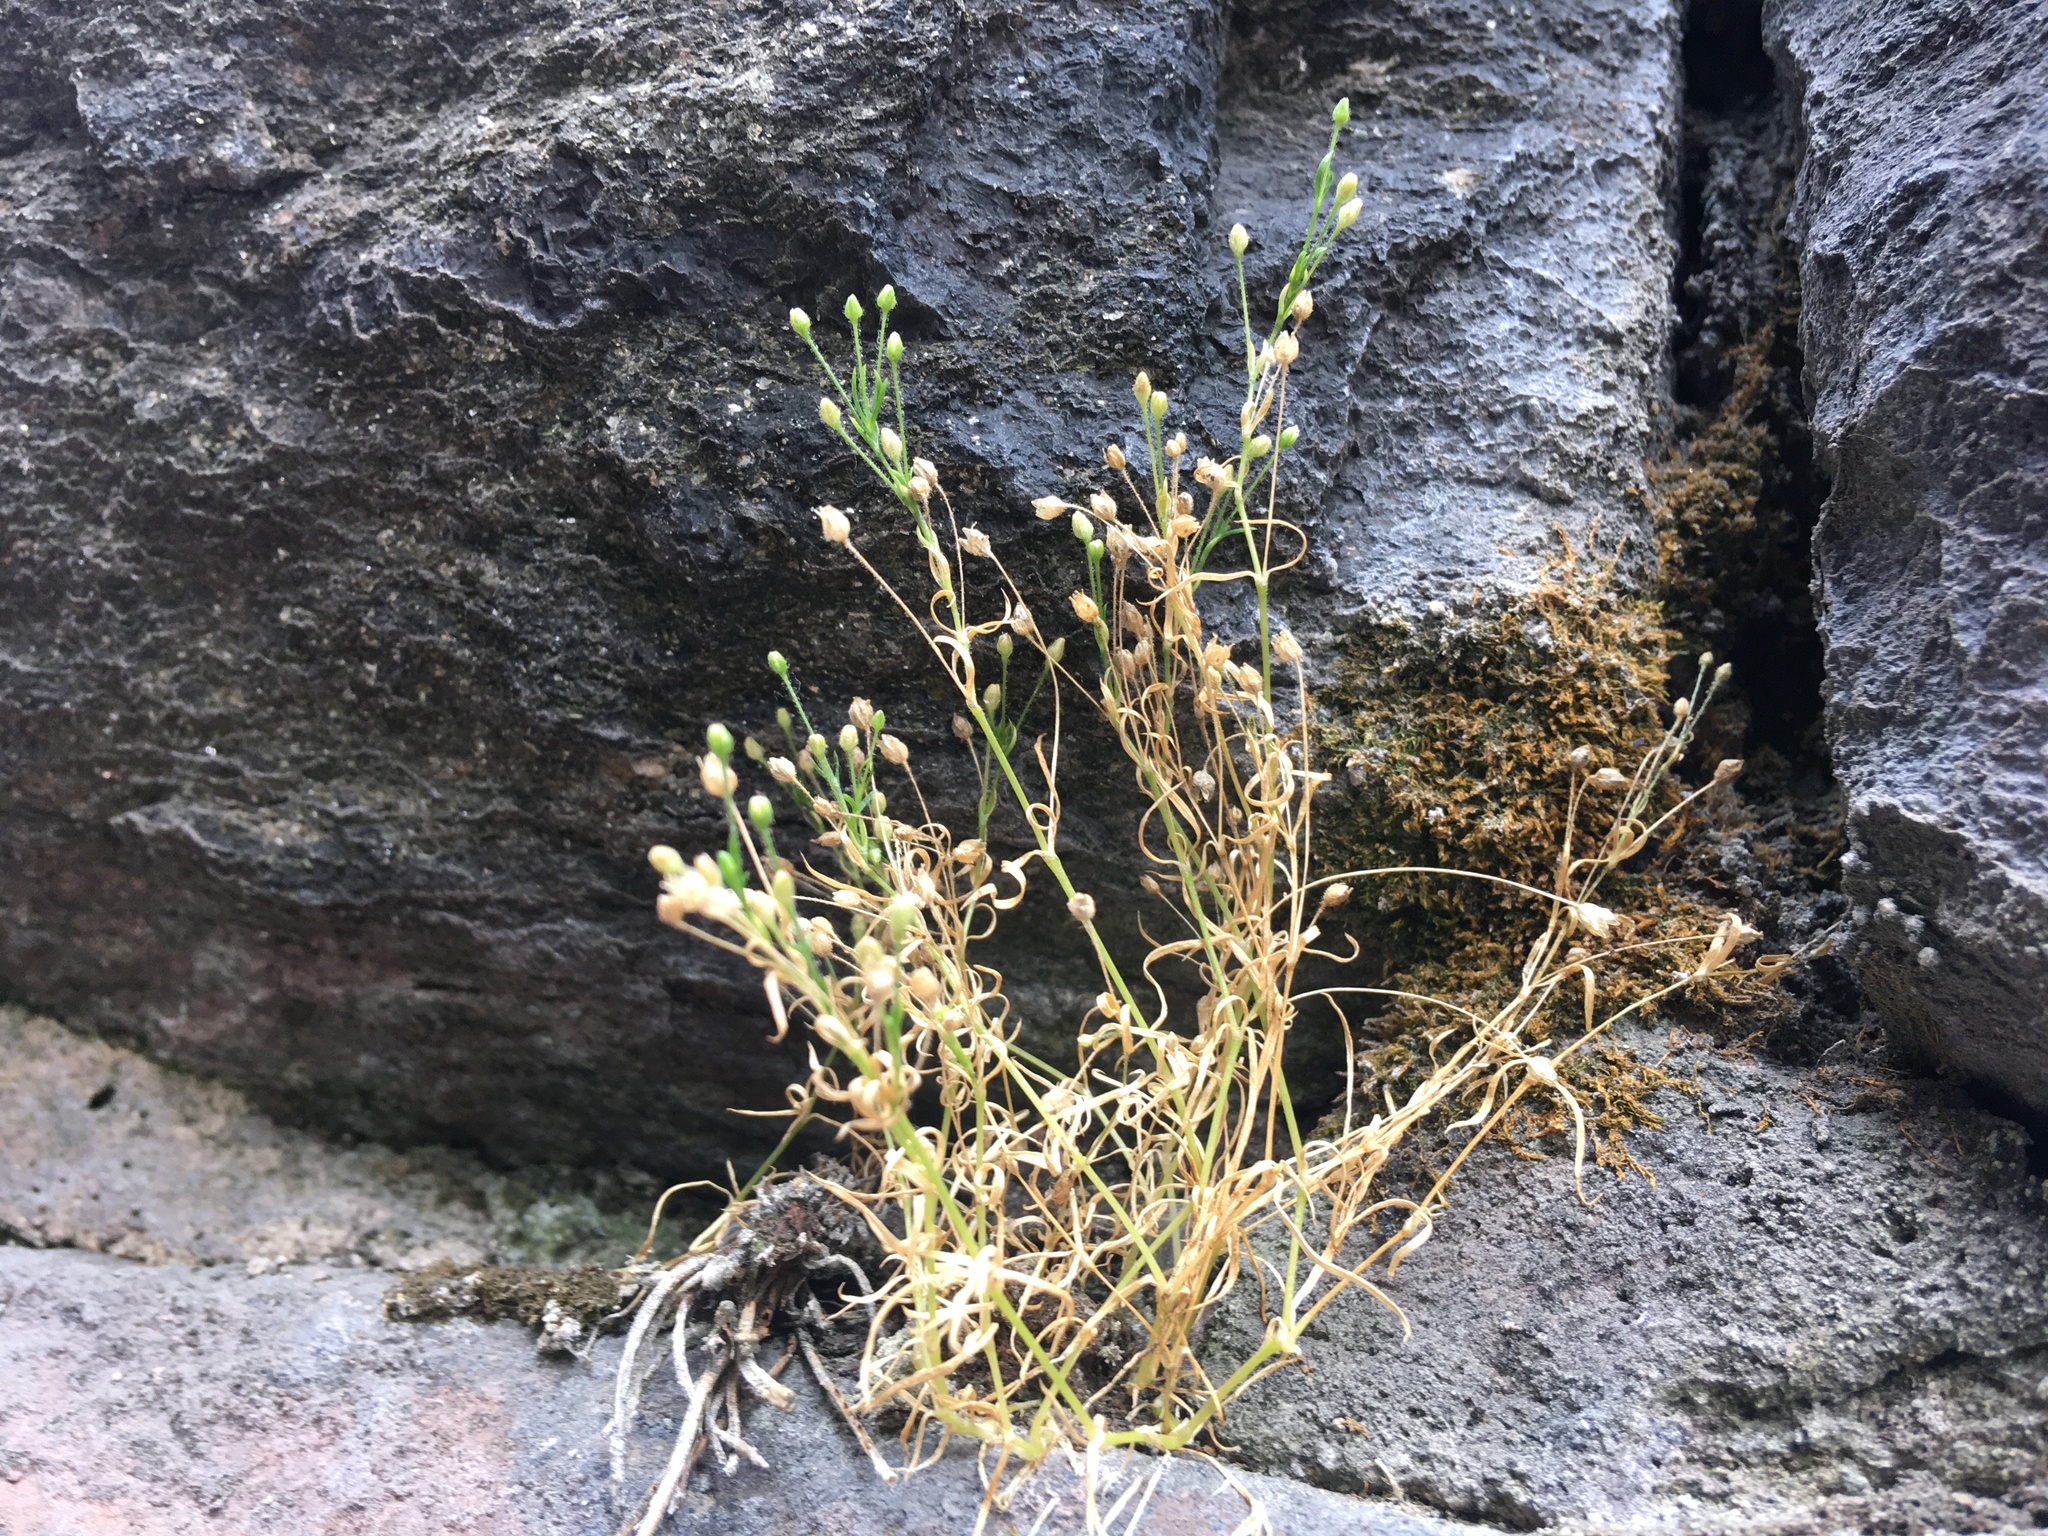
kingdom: Plantae
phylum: Tracheophyta
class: Magnoliopsida
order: Caryophyllales
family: Caryophyllaceae
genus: Sagina
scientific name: Sagina japonica
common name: Japanese pearlwort
